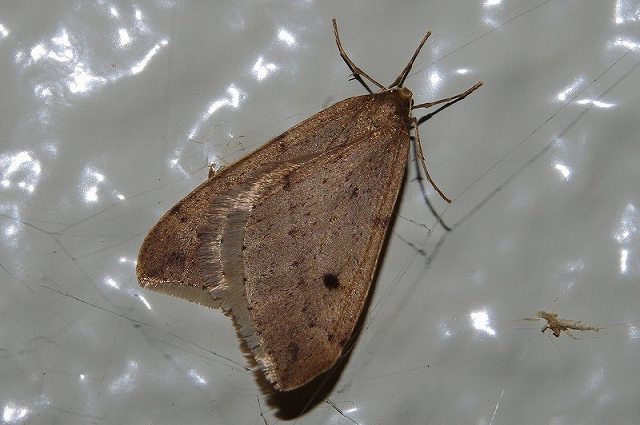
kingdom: Animalia
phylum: Arthropoda
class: Insecta
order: Lepidoptera
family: Geometridae
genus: Inurois
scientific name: Inurois membranaria
